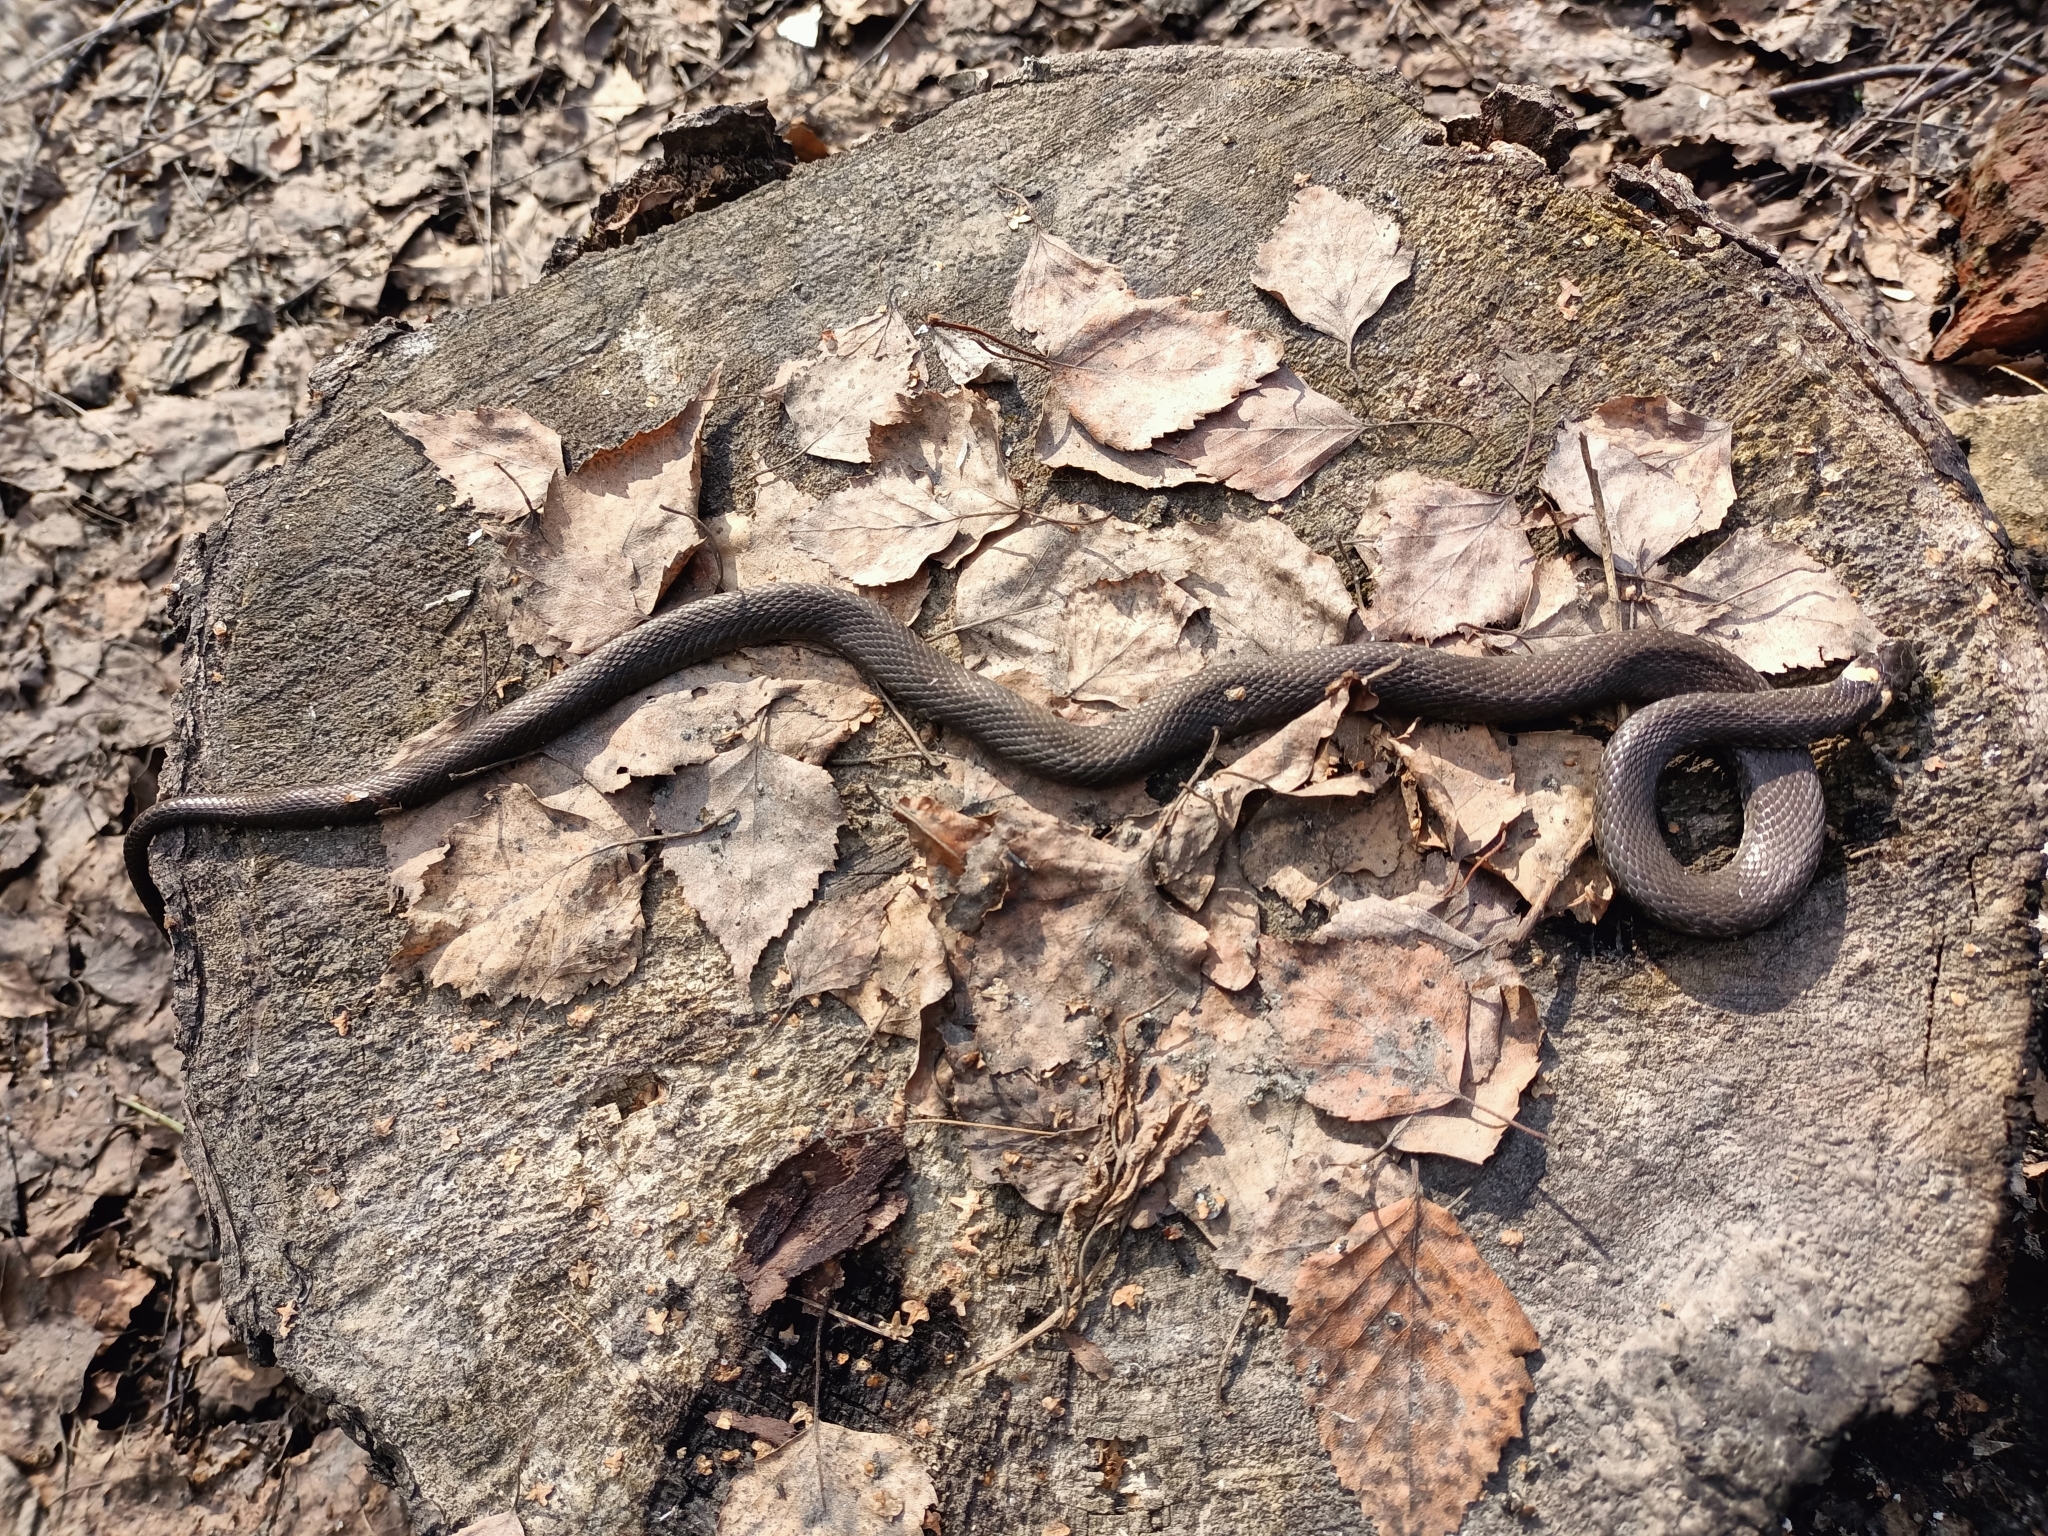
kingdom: Animalia
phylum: Chordata
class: Squamata
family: Colubridae
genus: Natrix
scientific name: Natrix natrix
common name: Grass snake
